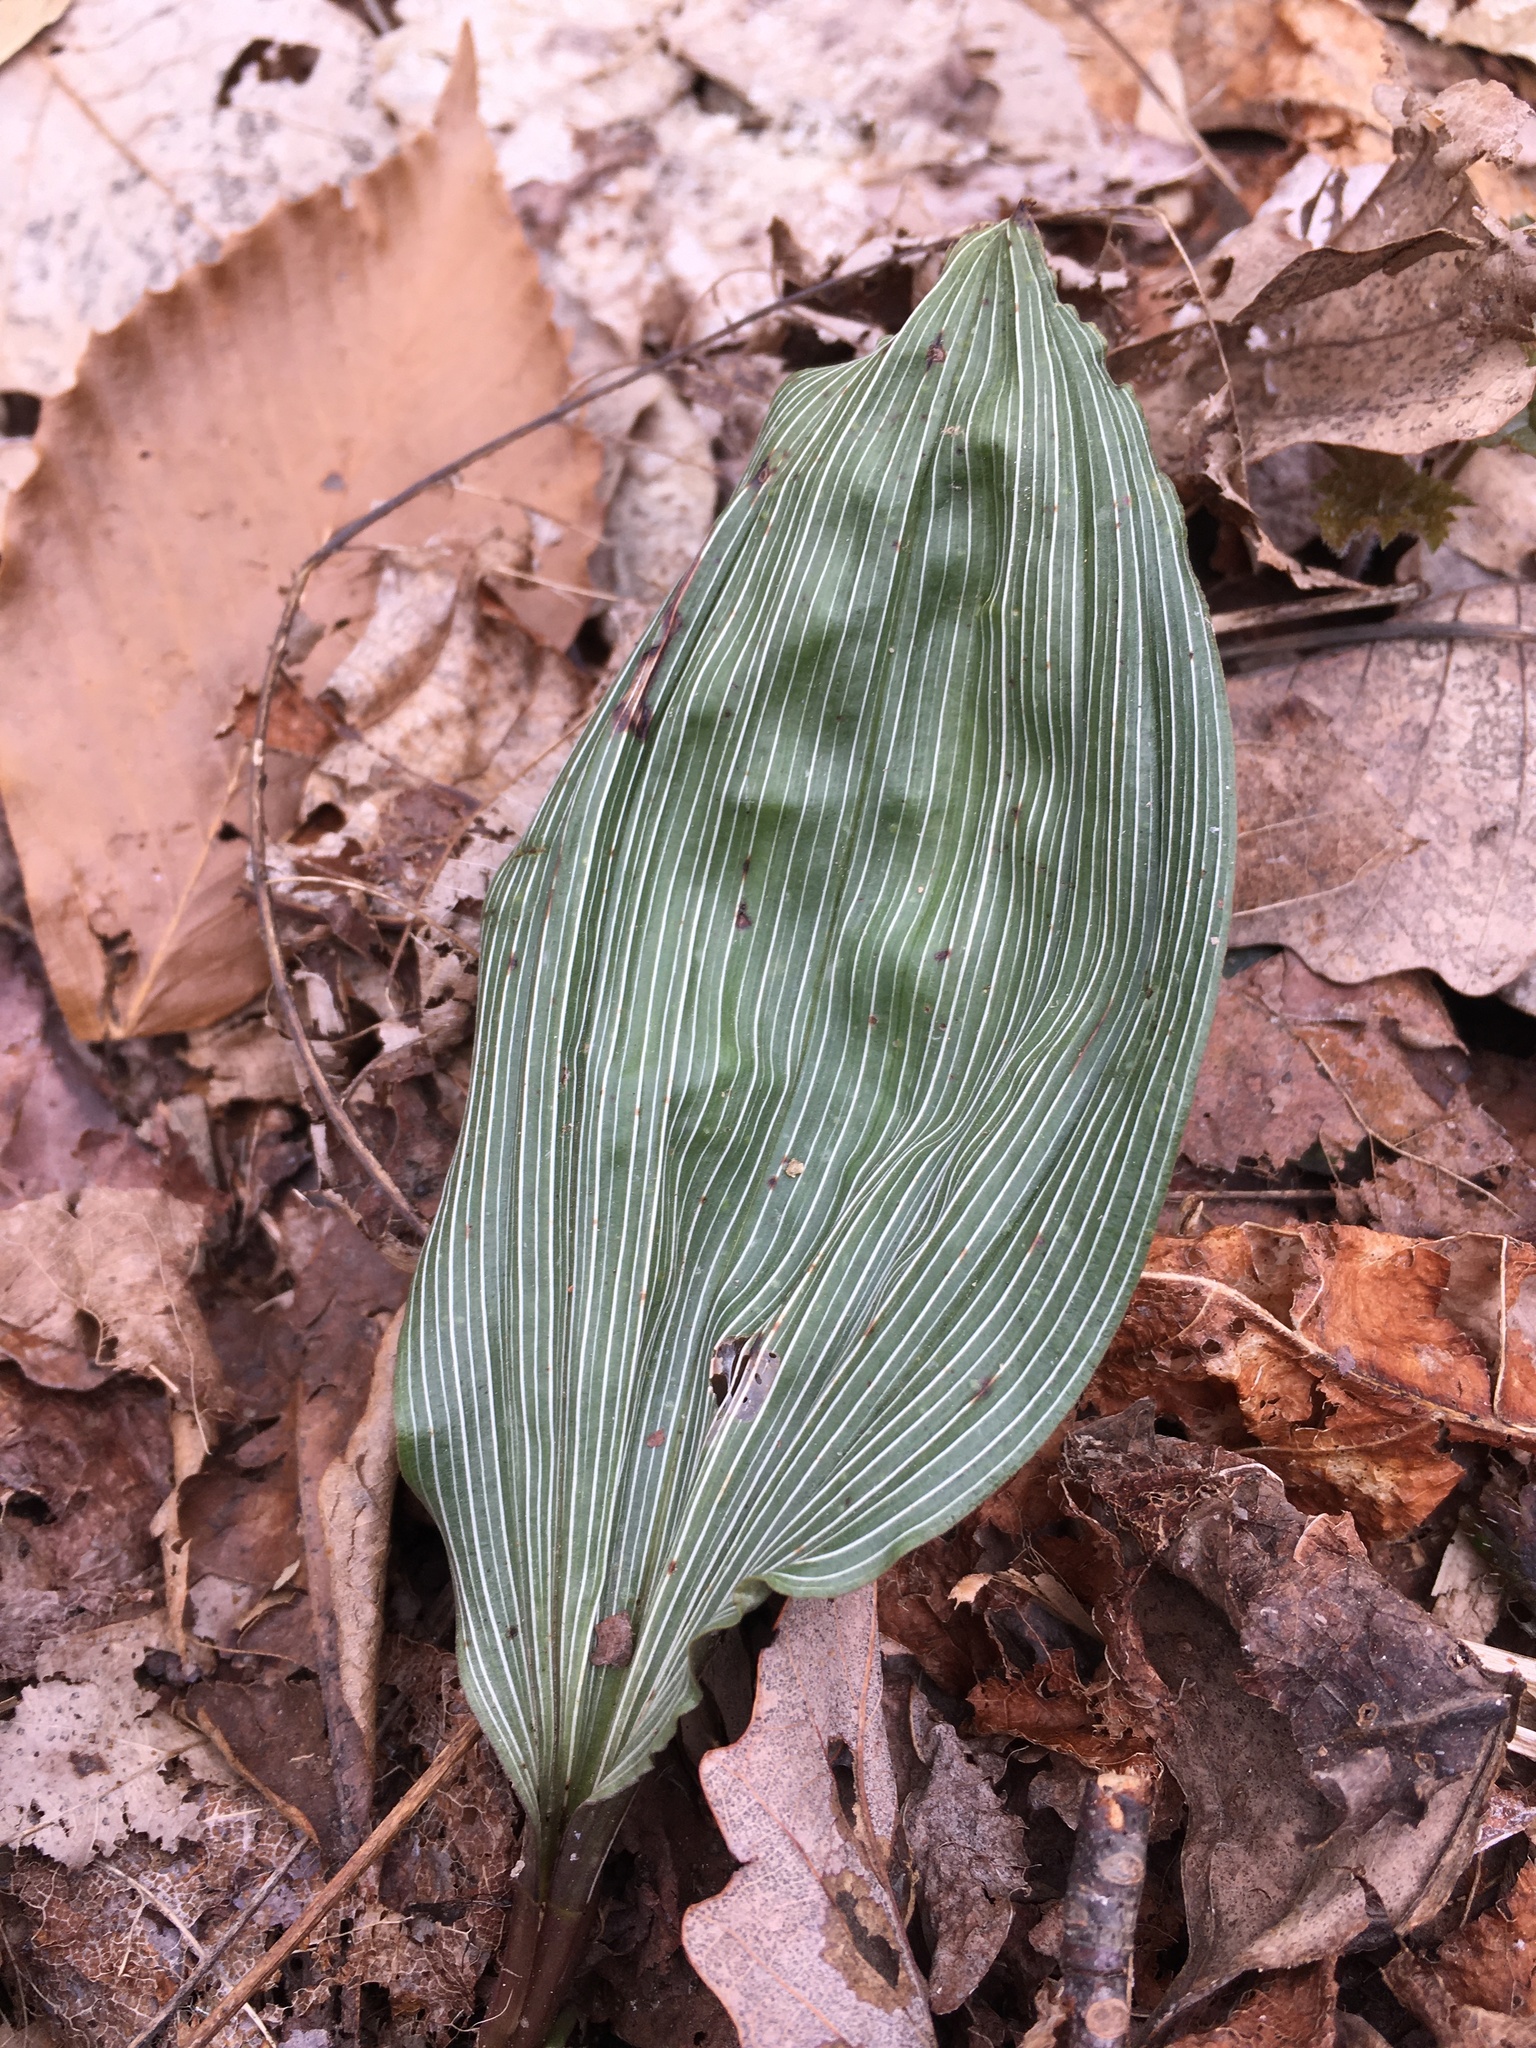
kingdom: Plantae
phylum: Tracheophyta
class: Liliopsida
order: Asparagales
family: Orchidaceae
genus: Aplectrum
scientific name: Aplectrum hyemale
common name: Adam-and-eve
